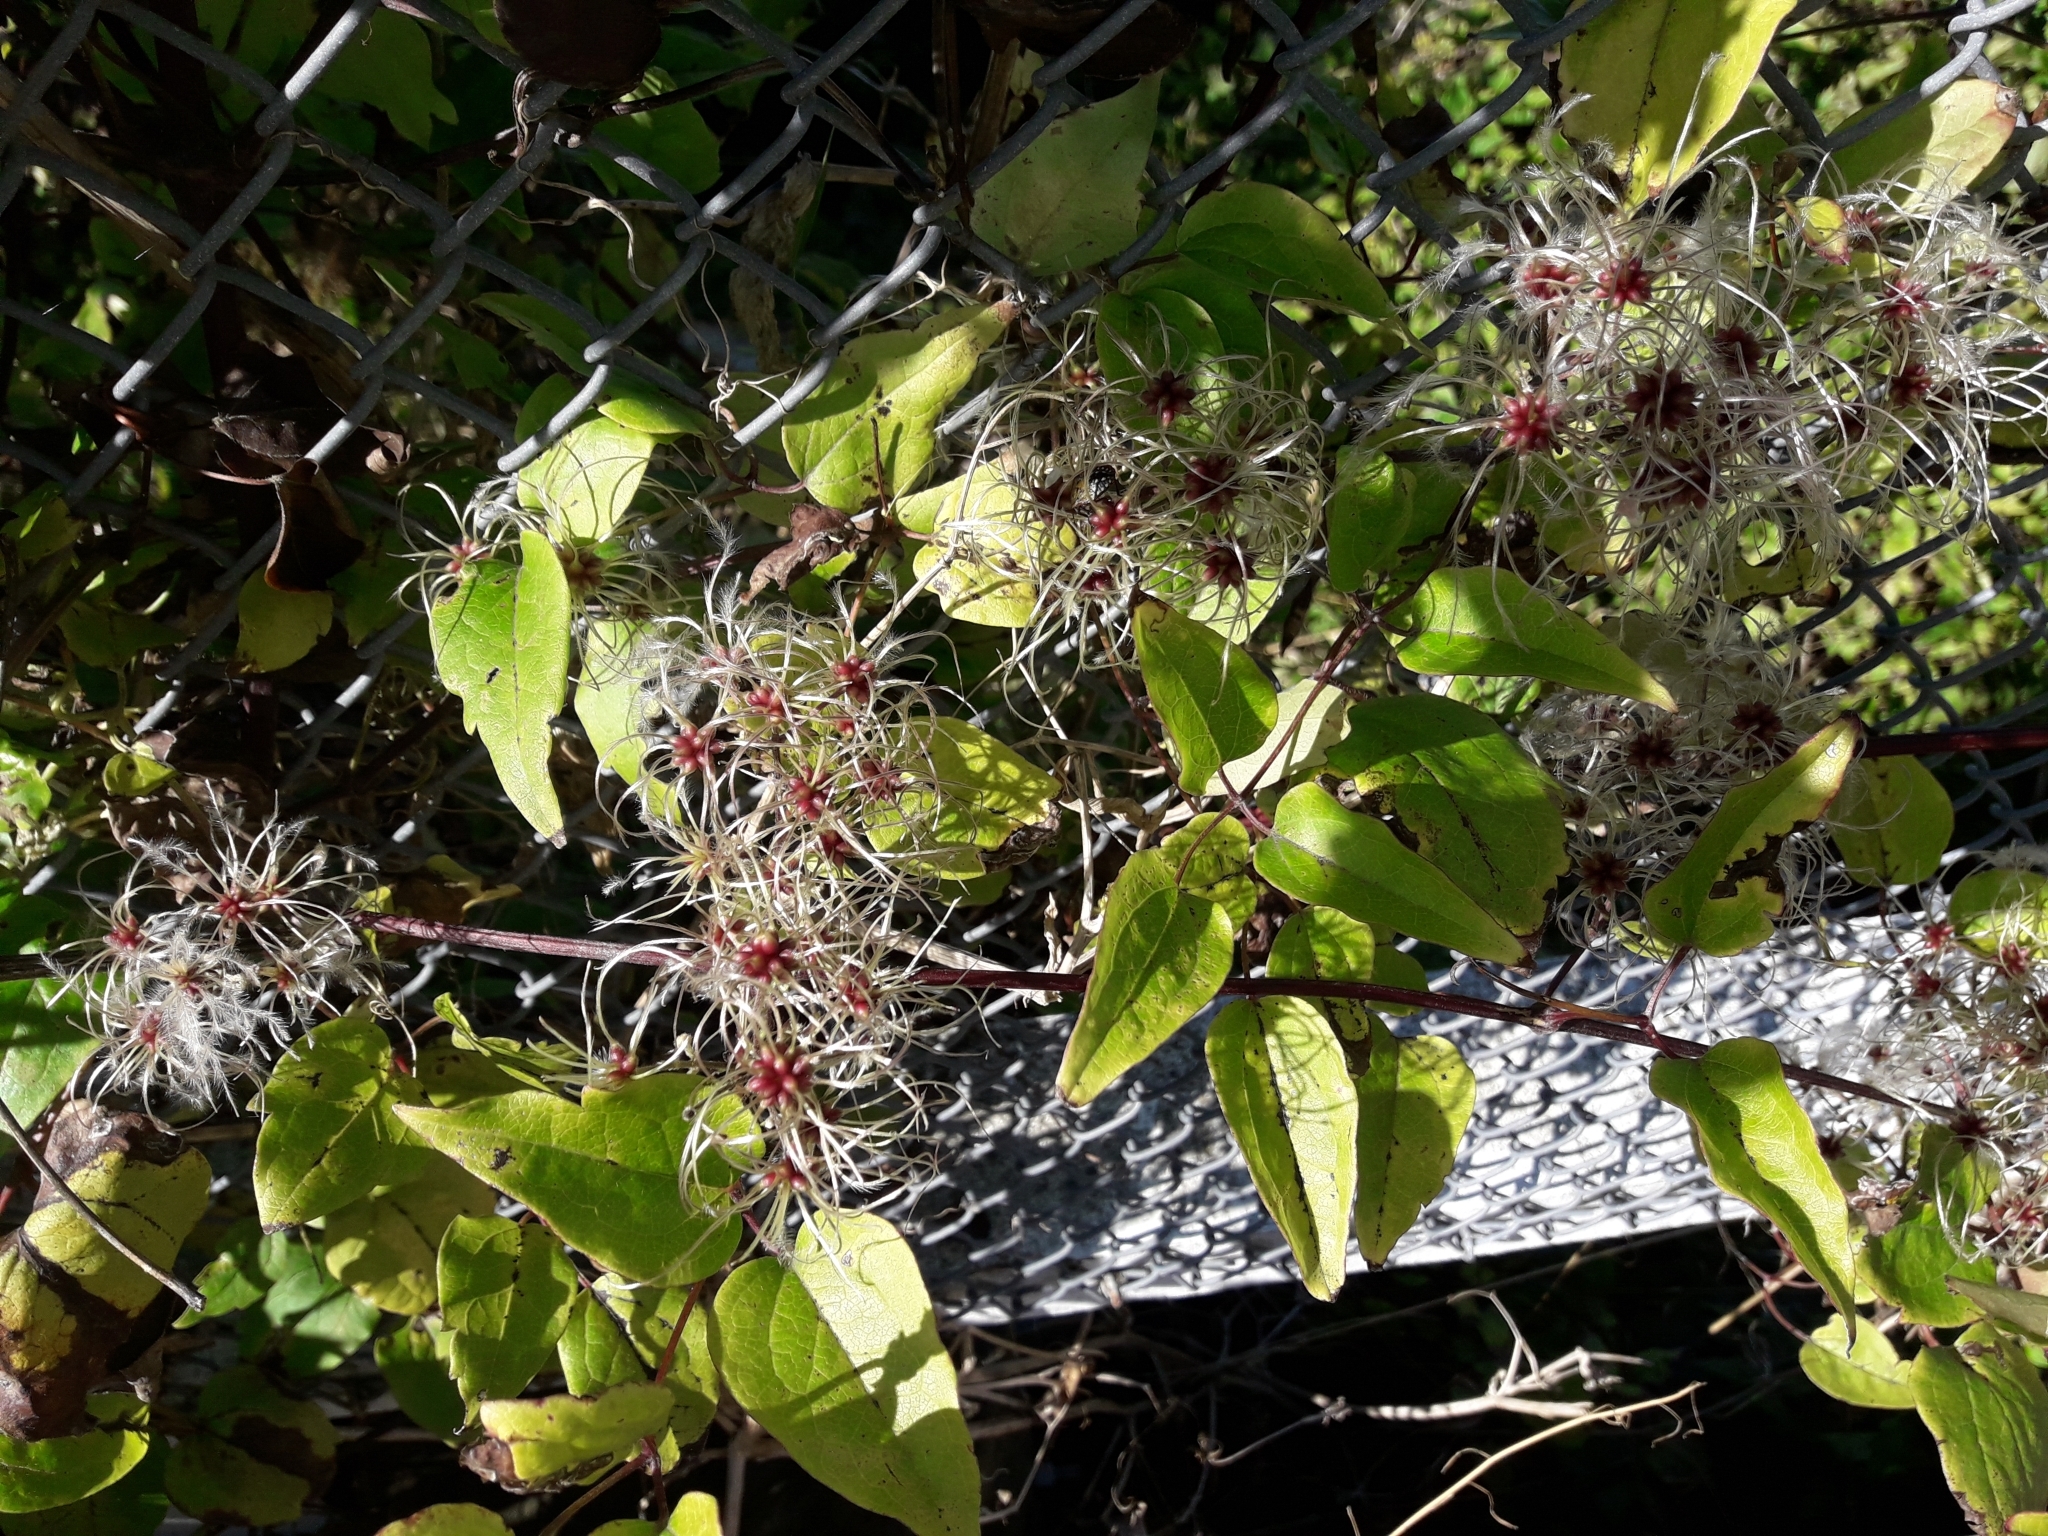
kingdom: Plantae
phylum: Tracheophyta
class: Magnoliopsida
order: Ranunculales
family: Ranunculaceae
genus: Clematis
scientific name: Clematis vitalba
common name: Evergreen clematis
